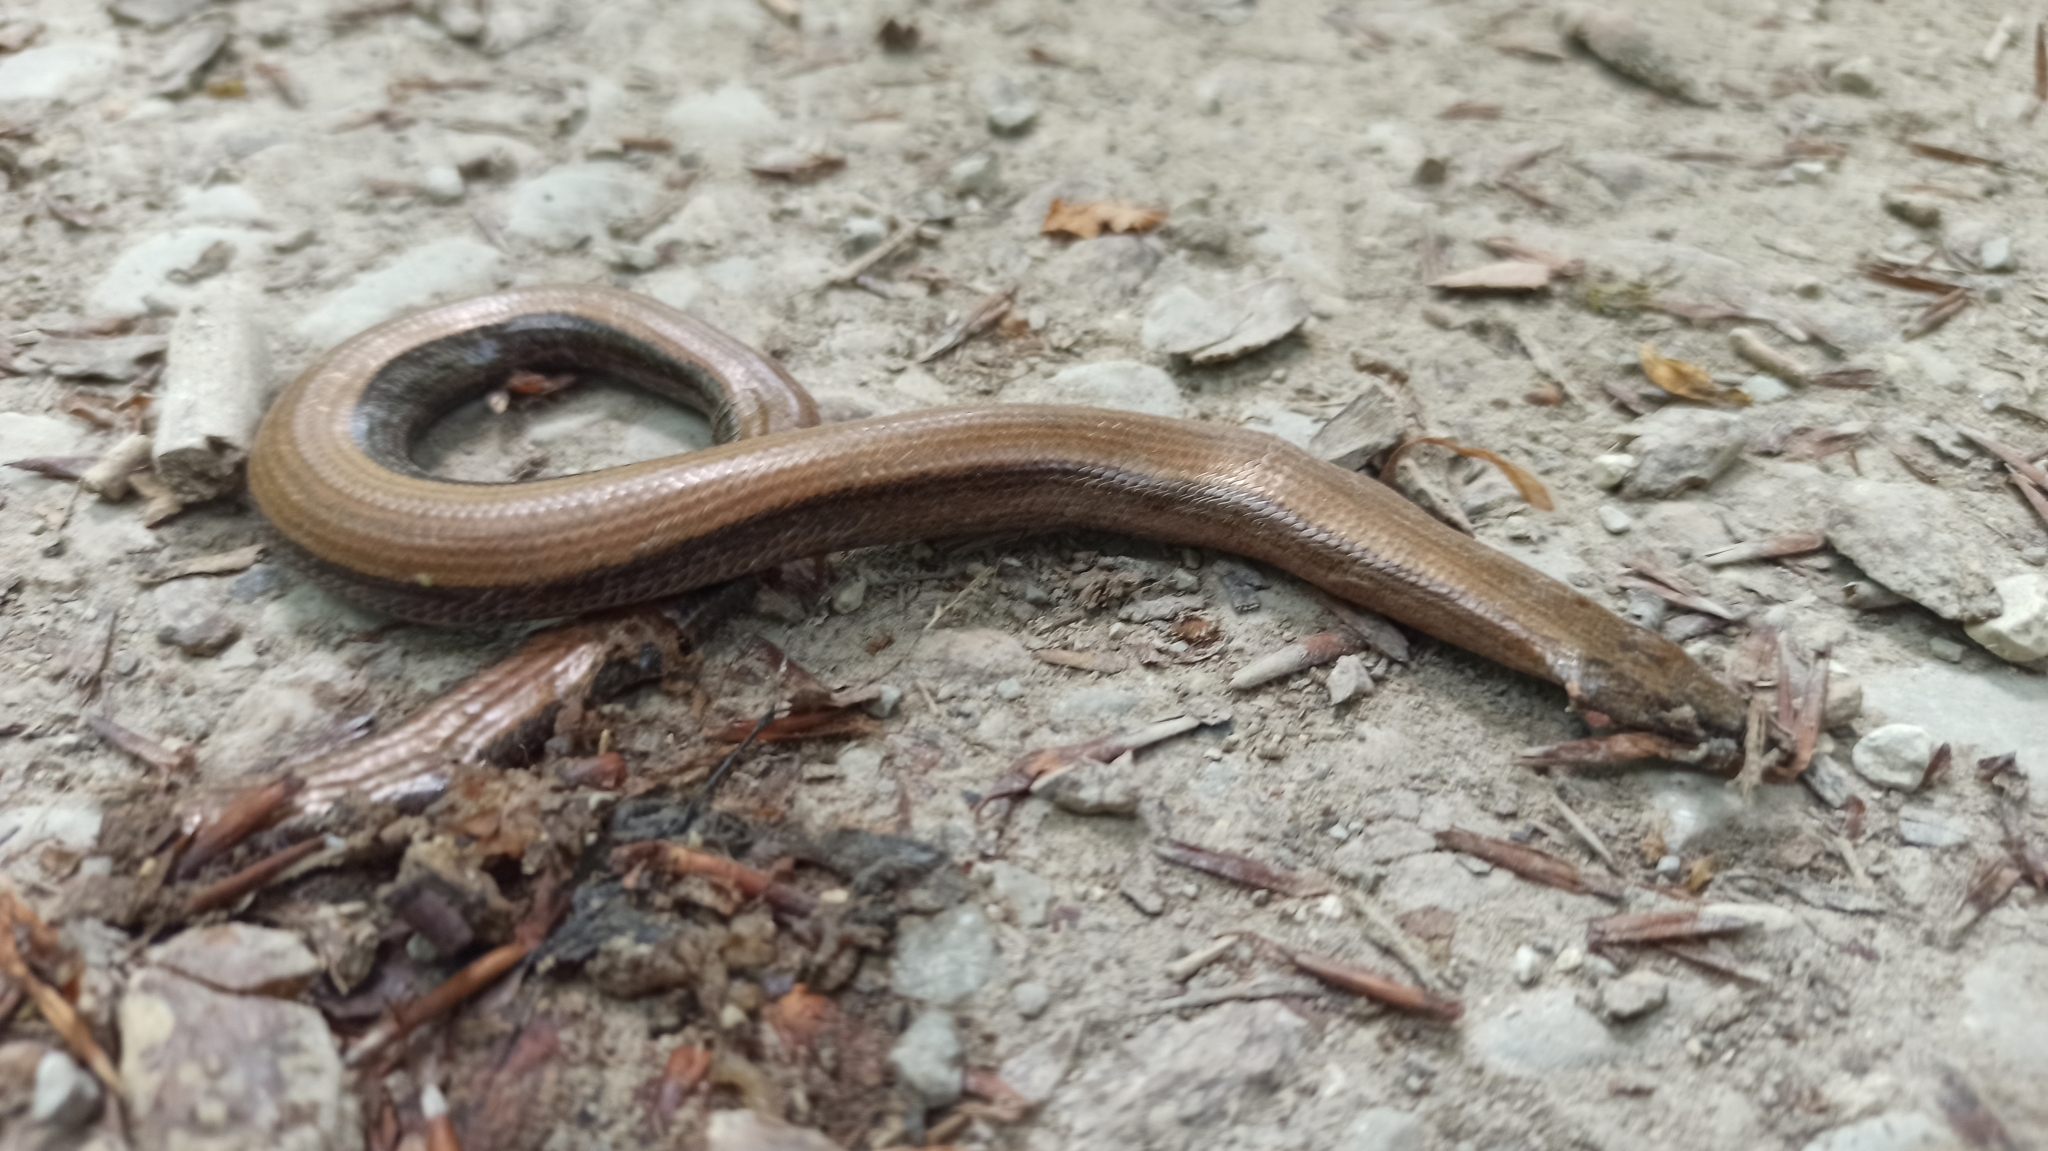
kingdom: Animalia
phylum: Chordata
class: Squamata
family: Anguidae
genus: Anguis
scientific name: Anguis fragilis
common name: Slow worm
